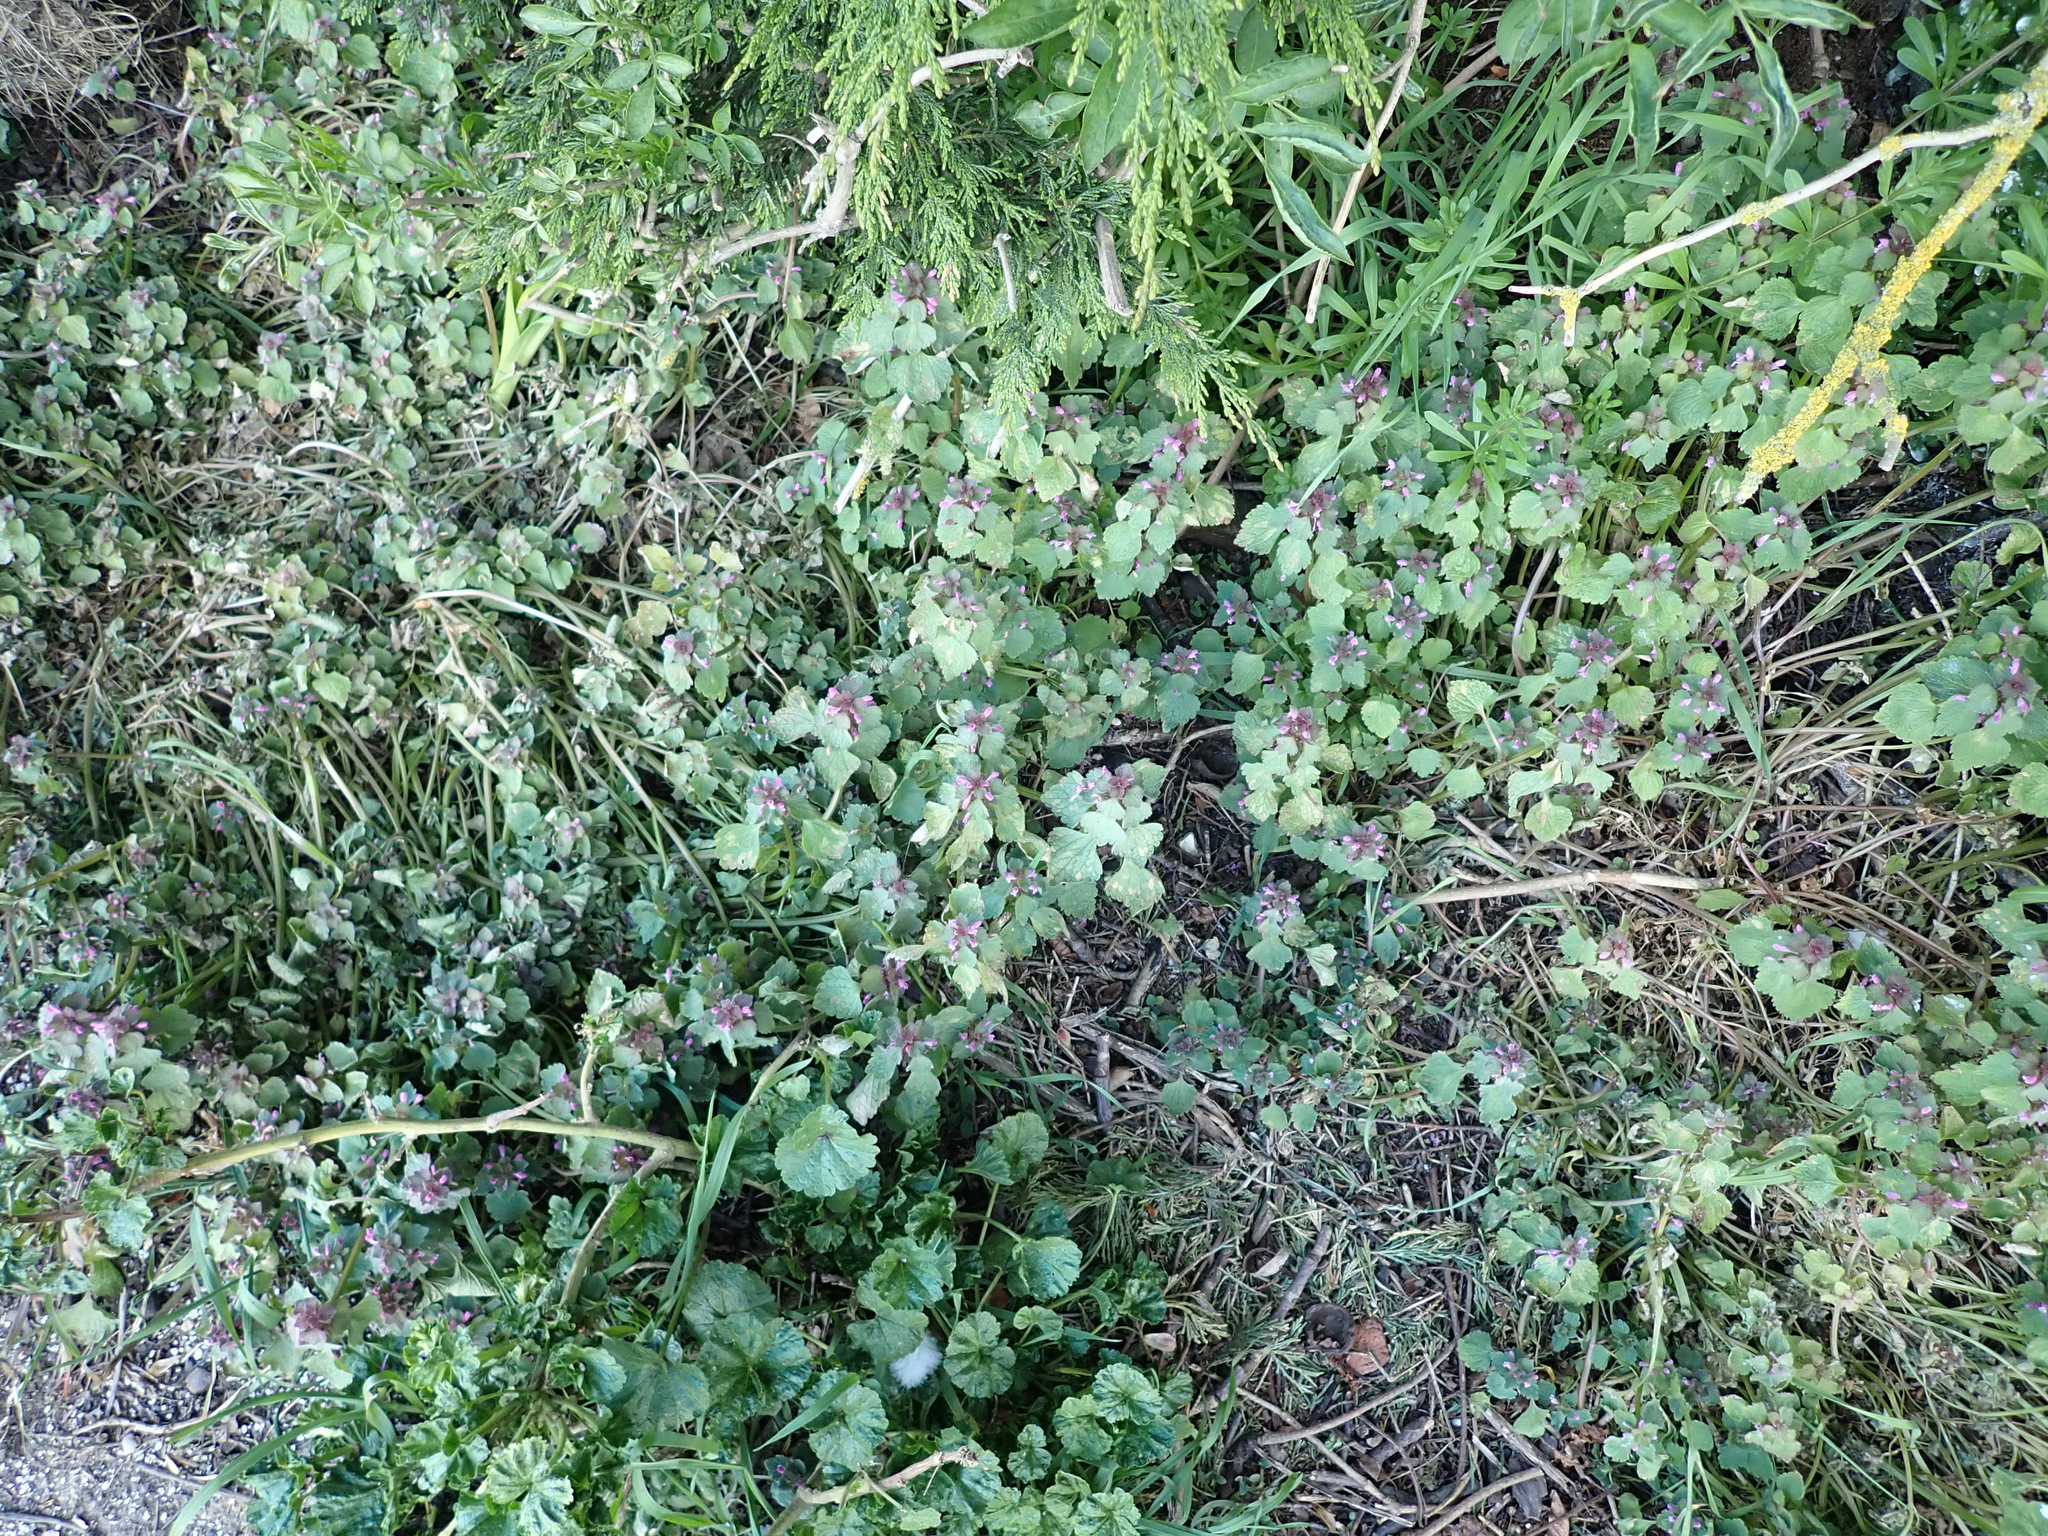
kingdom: Plantae
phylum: Tracheophyta
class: Magnoliopsida
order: Lamiales
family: Lamiaceae
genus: Lamium
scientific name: Lamium purpureum
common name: Red dead-nettle
